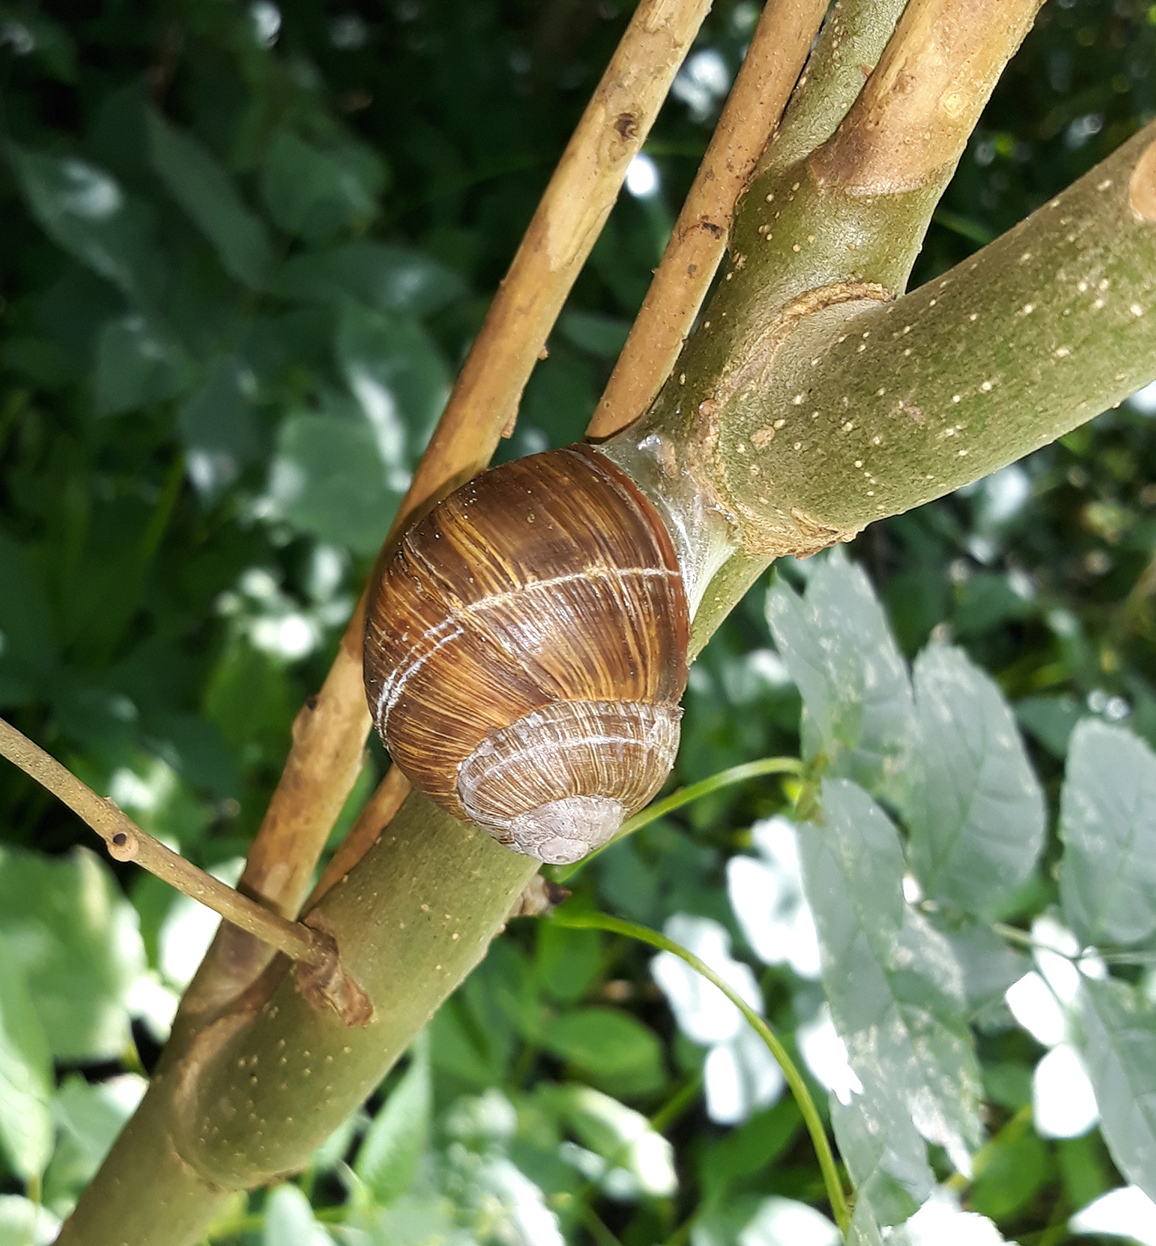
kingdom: Animalia
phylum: Mollusca
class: Gastropoda
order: Stylommatophora
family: Helicidae
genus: Helix
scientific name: Helix pomatia
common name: Roman snail
